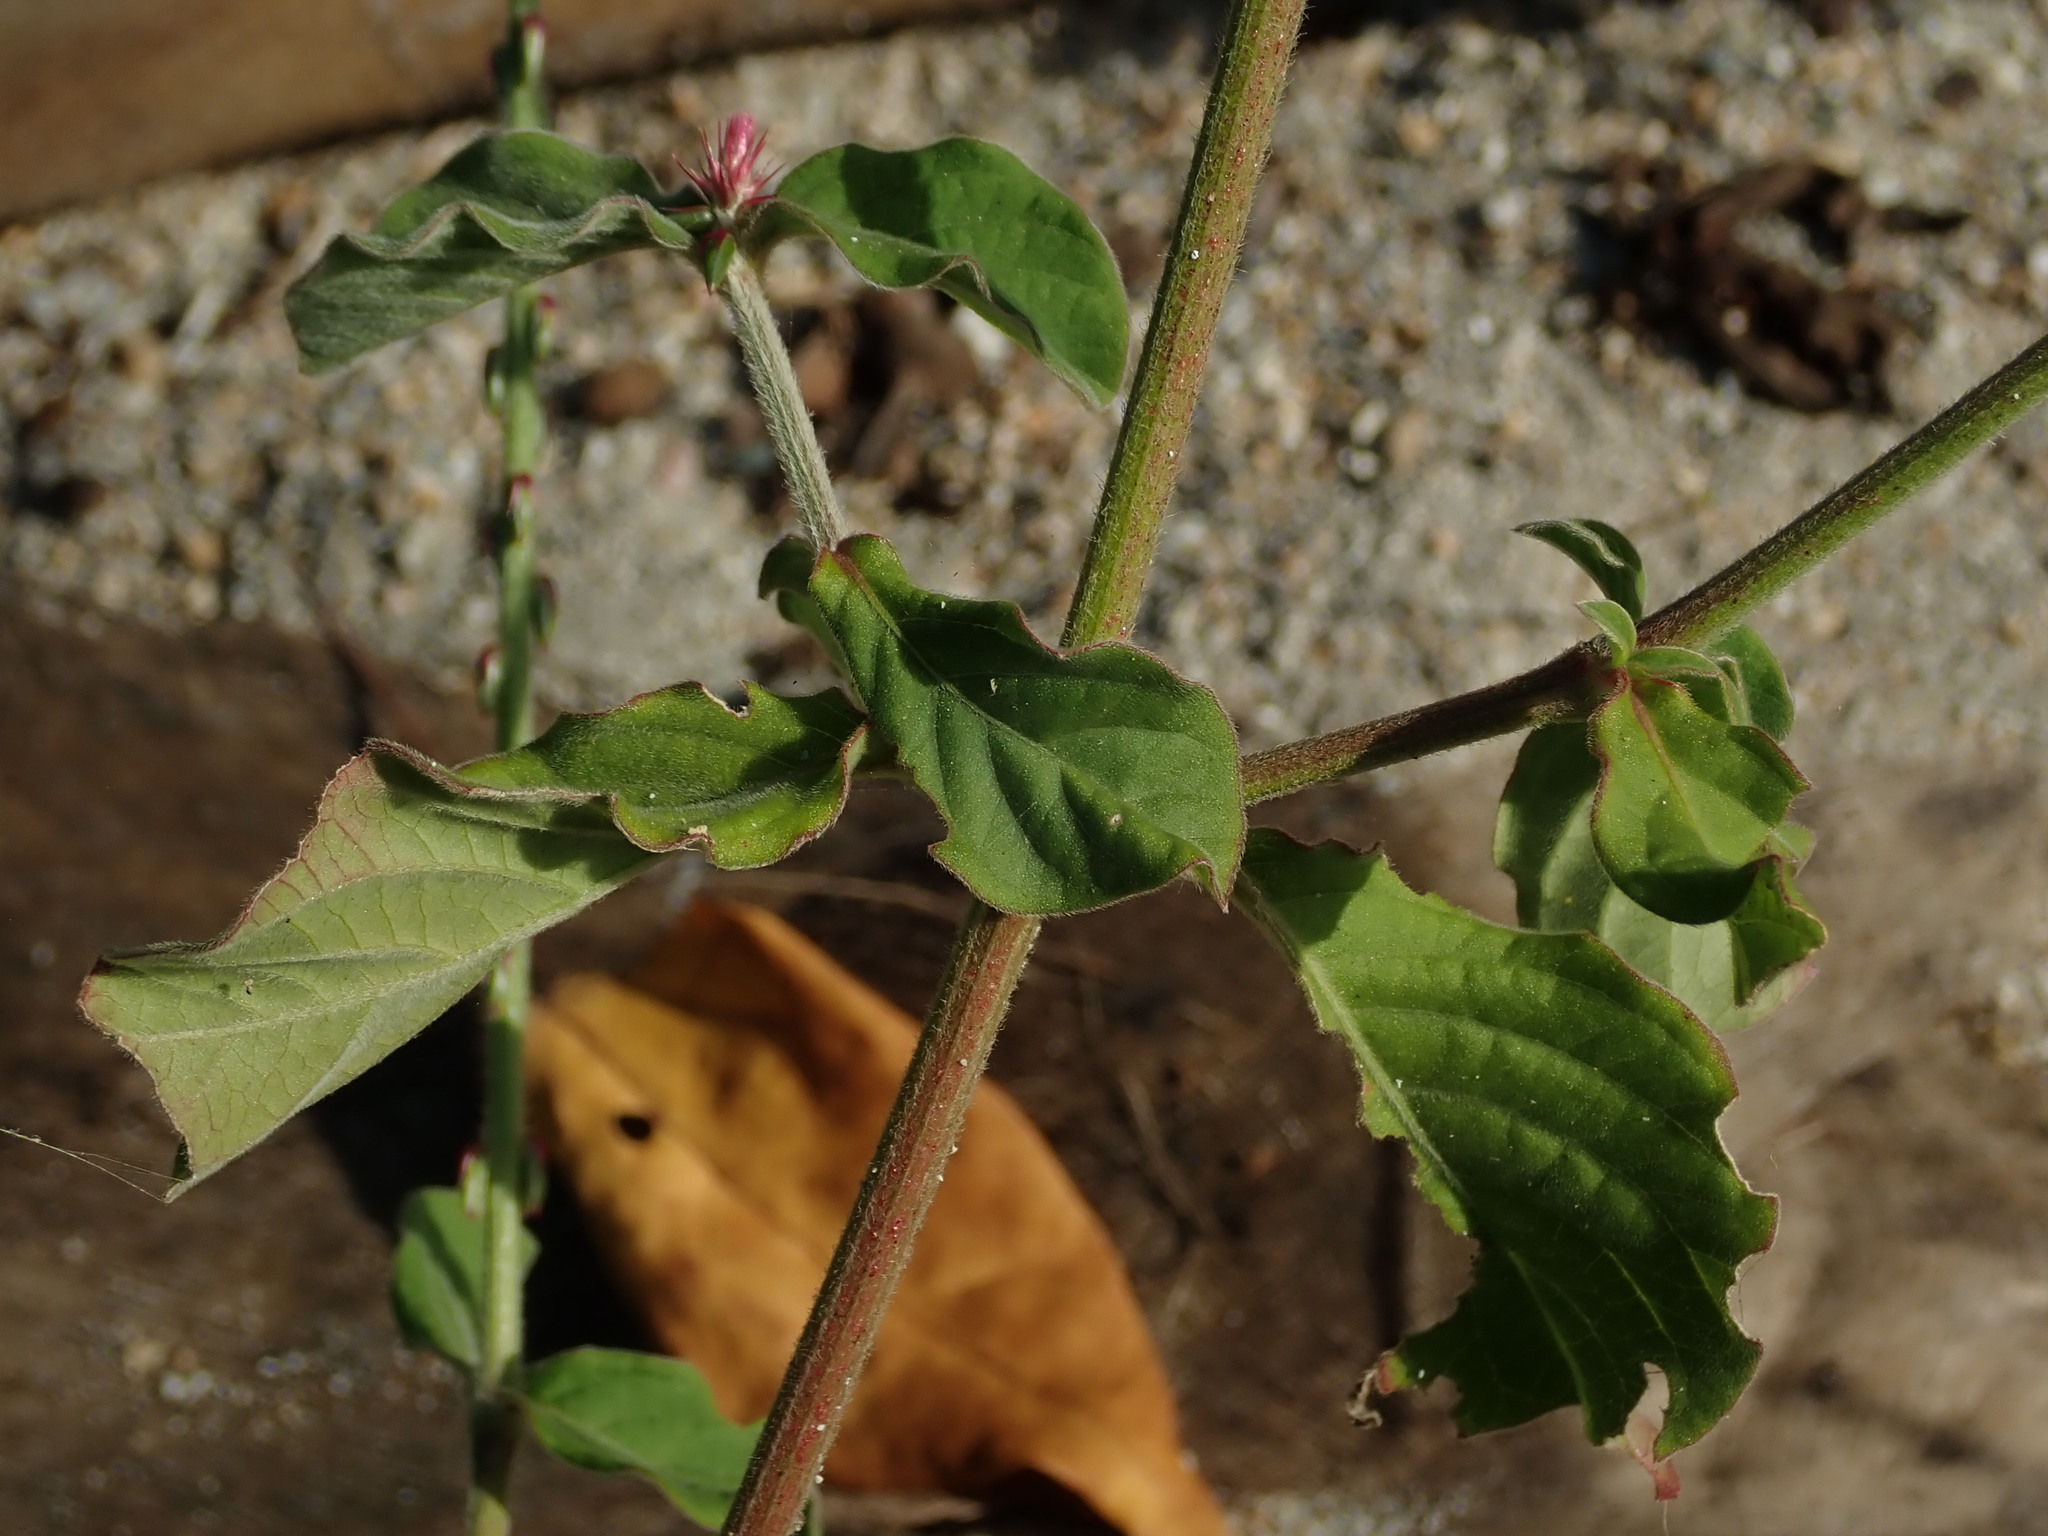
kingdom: Plantae
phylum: Tracheophyta
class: Magnoliopsida
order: Caryophyllales
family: Amaranthaceae
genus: Achyranthes
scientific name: Achyranthes aspera
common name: Devil's horsewhip
